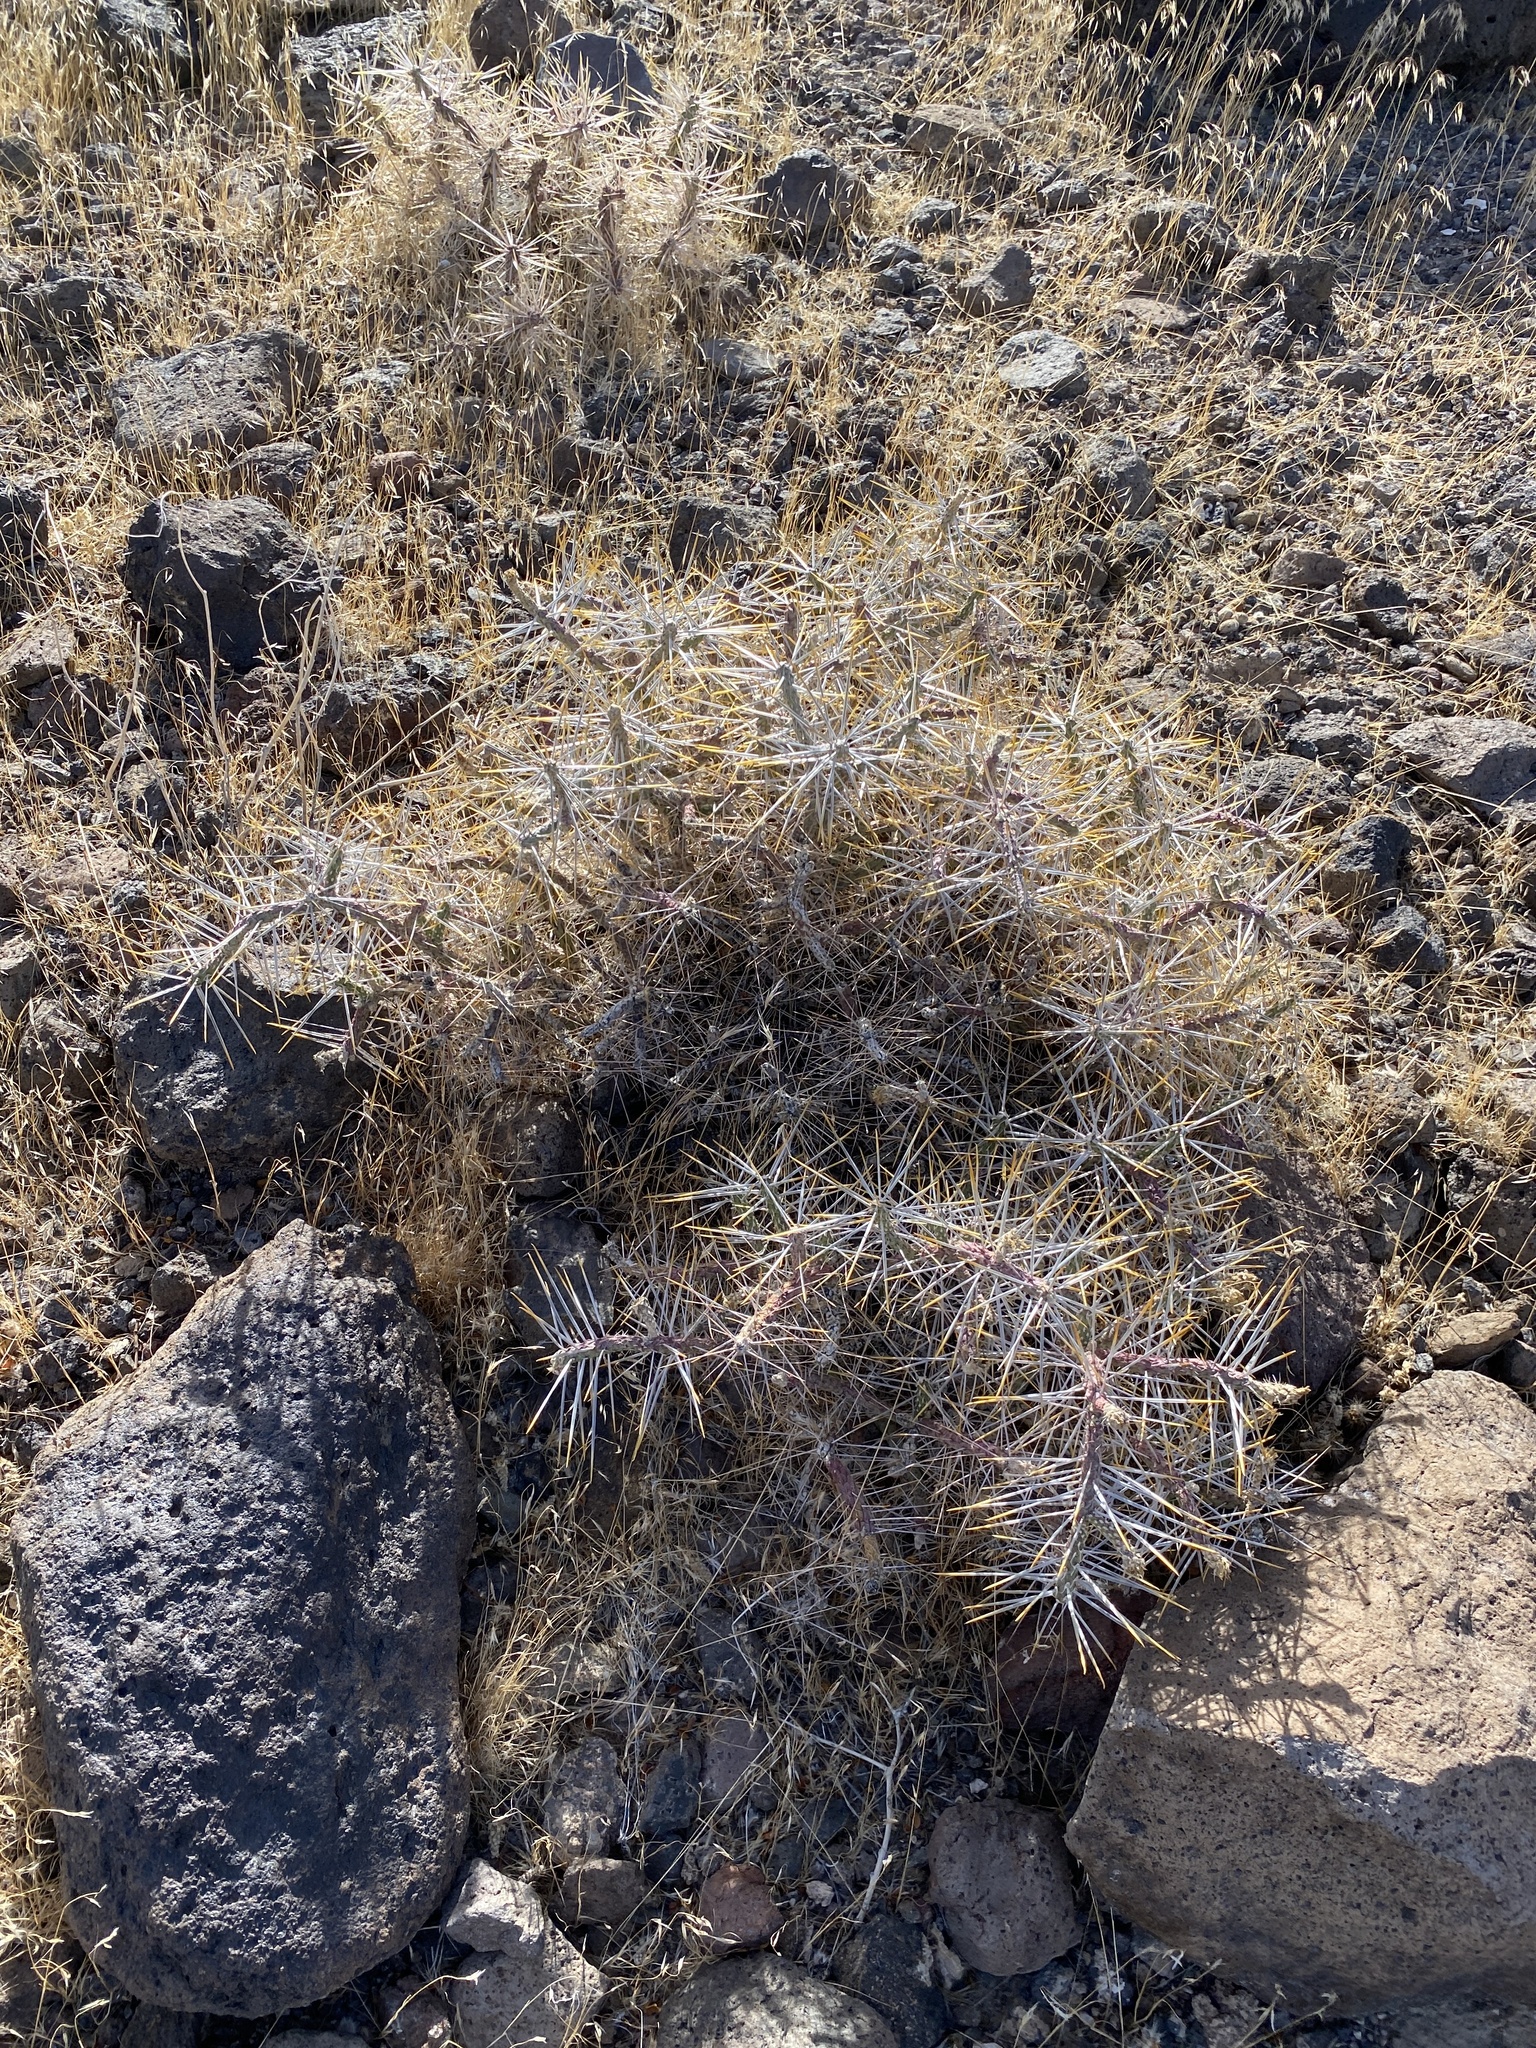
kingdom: Plantae
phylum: Tracheophyta
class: Magnoliopsida
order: Caryophyllales
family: Cactaceae
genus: Cylindropuntia
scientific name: Cylindropuntia ramosissima
